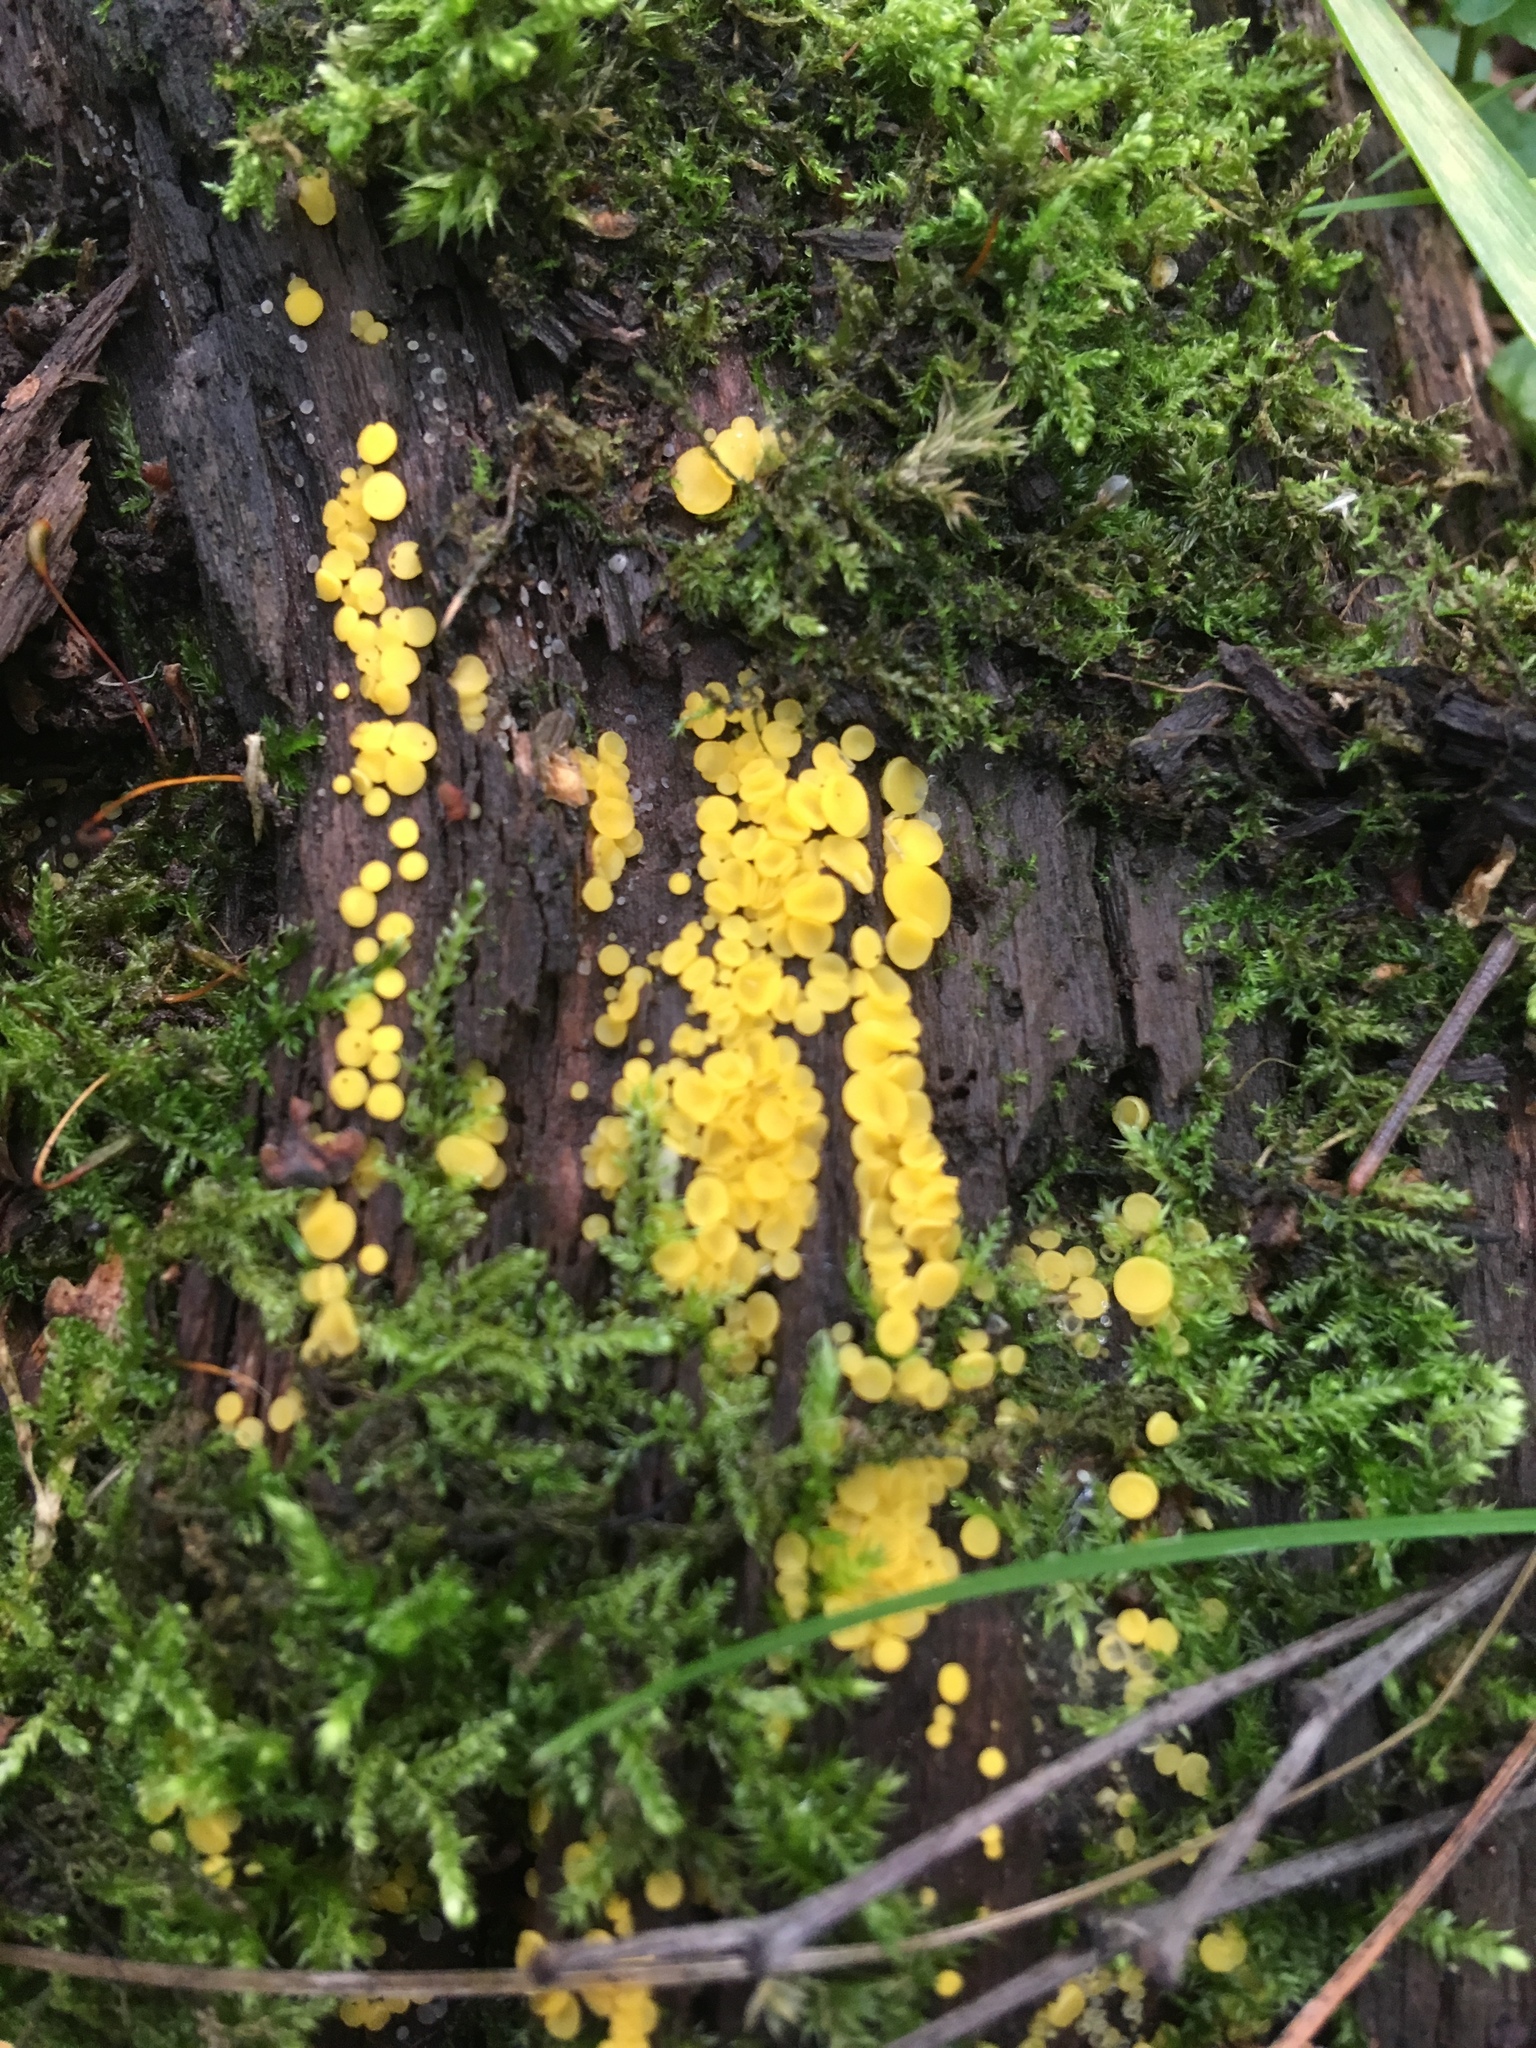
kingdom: Fungi
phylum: Ascomycota
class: Leotiomycetes
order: Helotiales
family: Pezizellaceae
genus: Calycina
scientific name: Calycina citrina
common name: Yellow fairy cups
